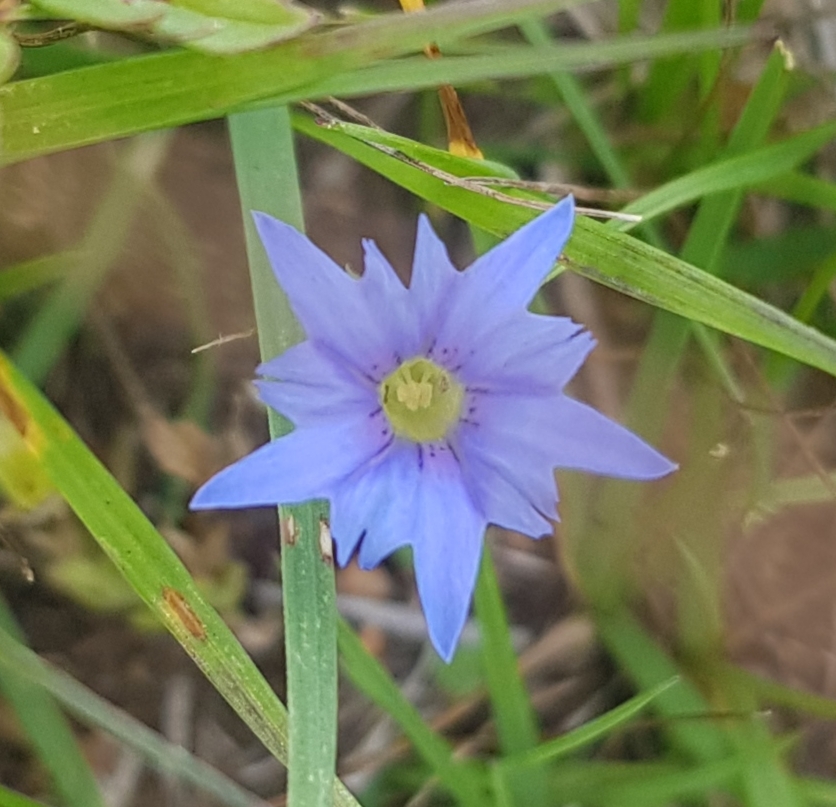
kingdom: Plantae
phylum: Tracheophyta
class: Magnoliopsida
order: Gentianales
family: Gentianaceae
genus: Gentiana
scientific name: Gentiana prostrata
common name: Moss gentian
